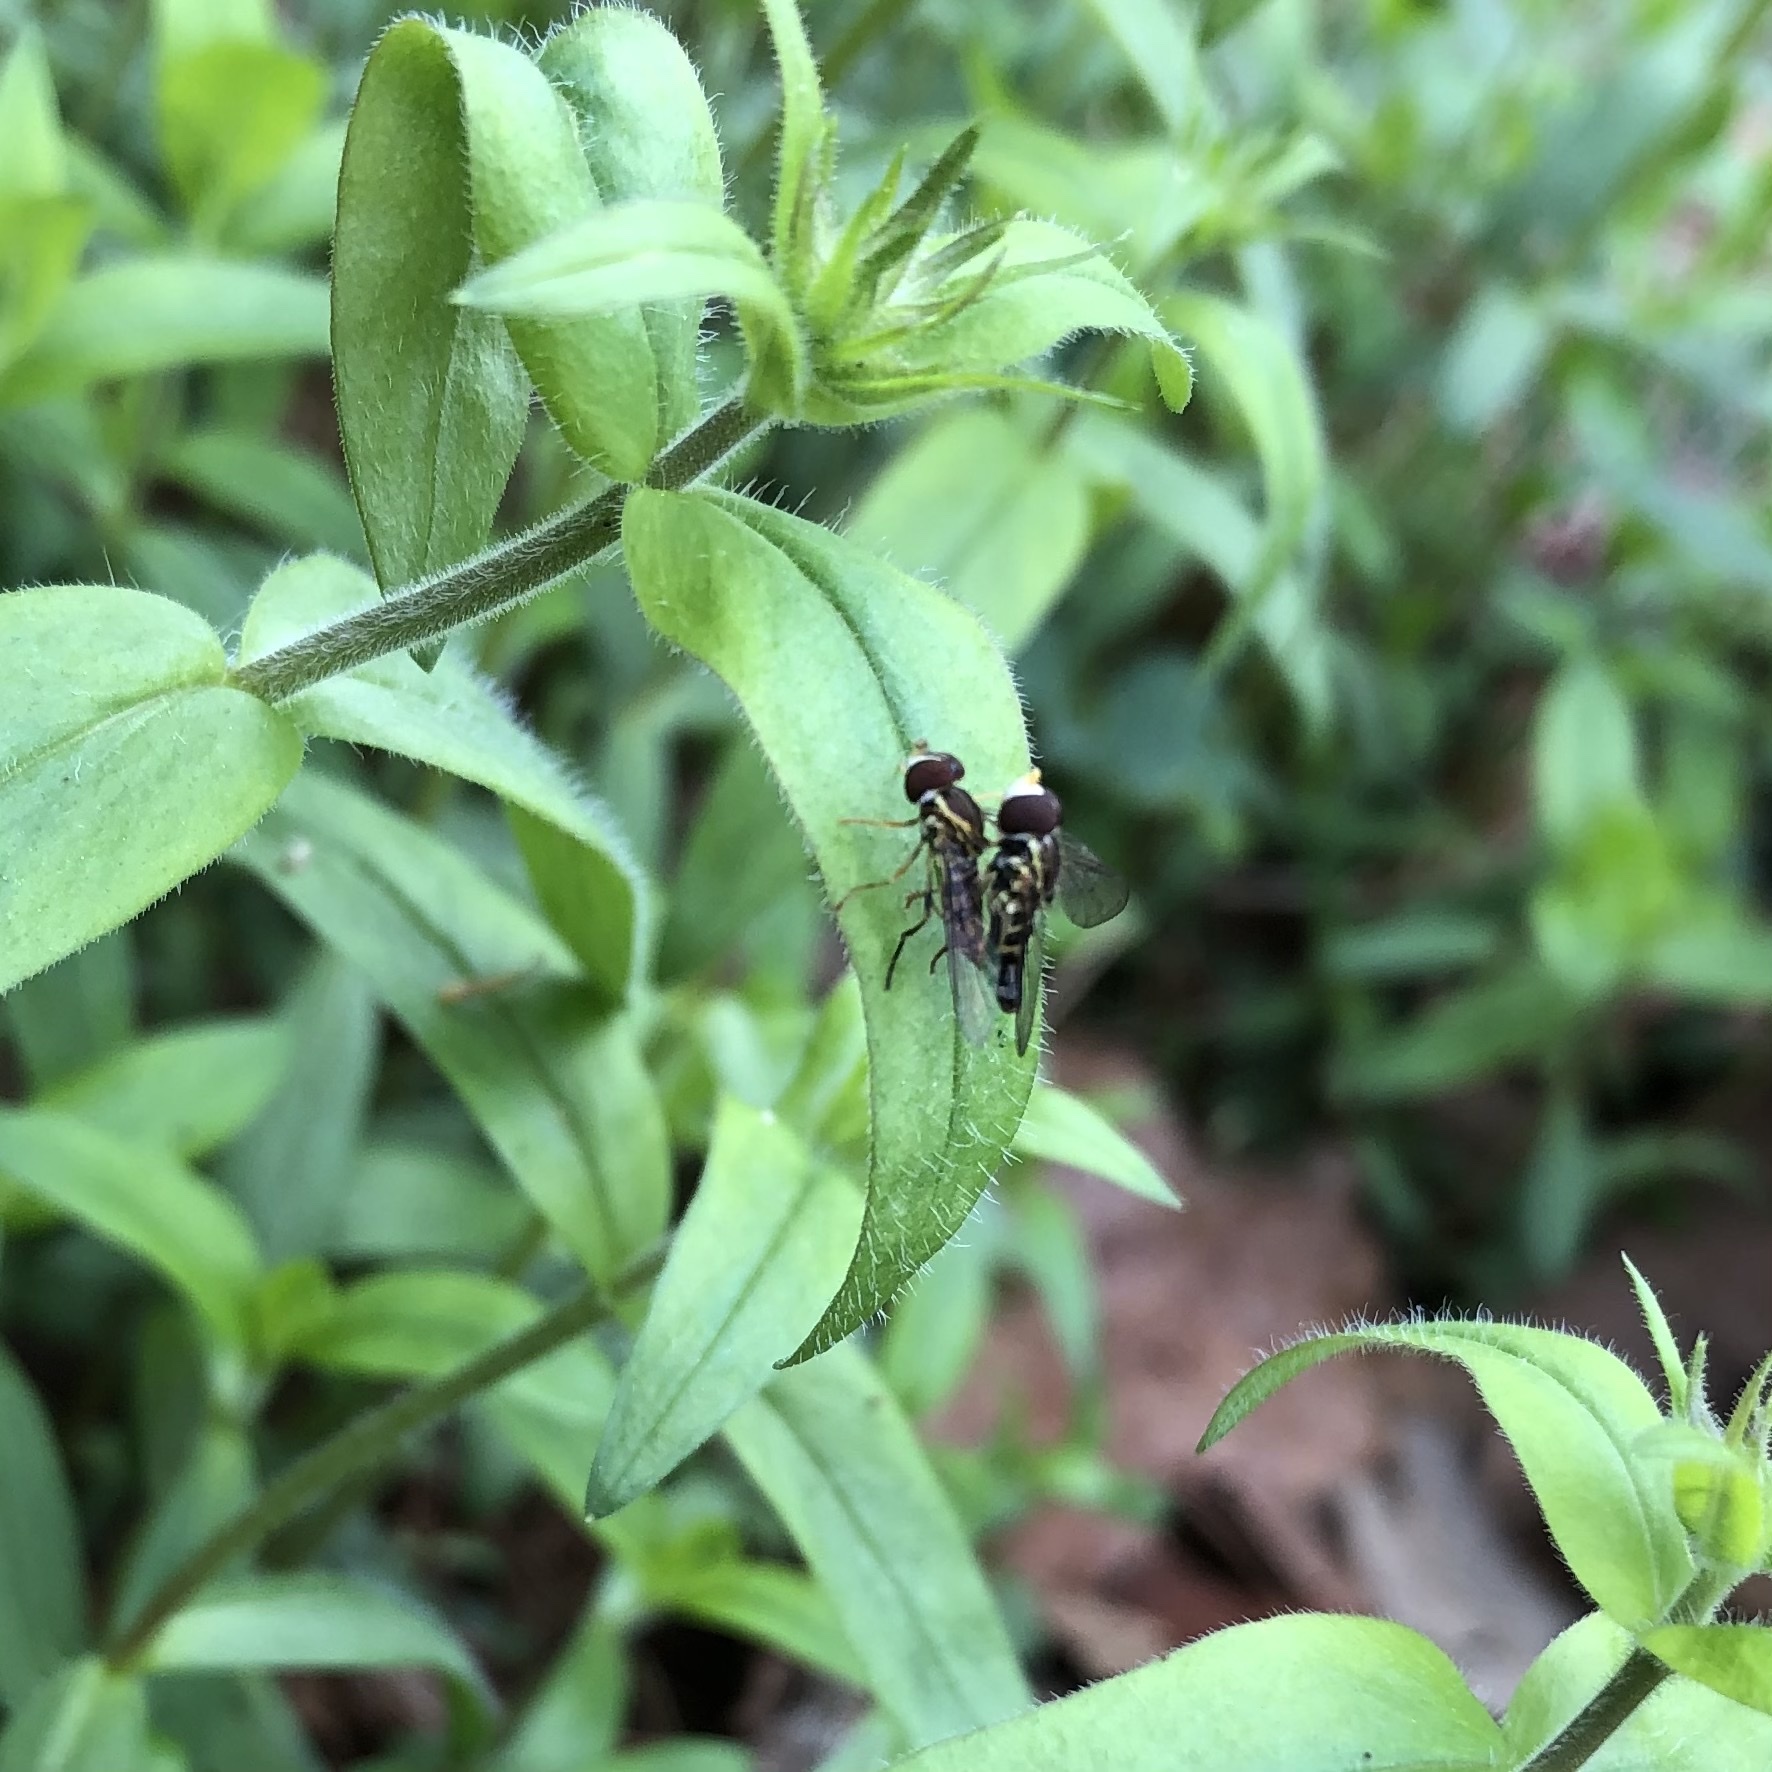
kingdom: Animalia
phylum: Arthropoda
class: Insecta
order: Diptera
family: Syrphidae
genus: Toxomerus
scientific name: Toxomerus geminatus
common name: Eastern calligrapher
